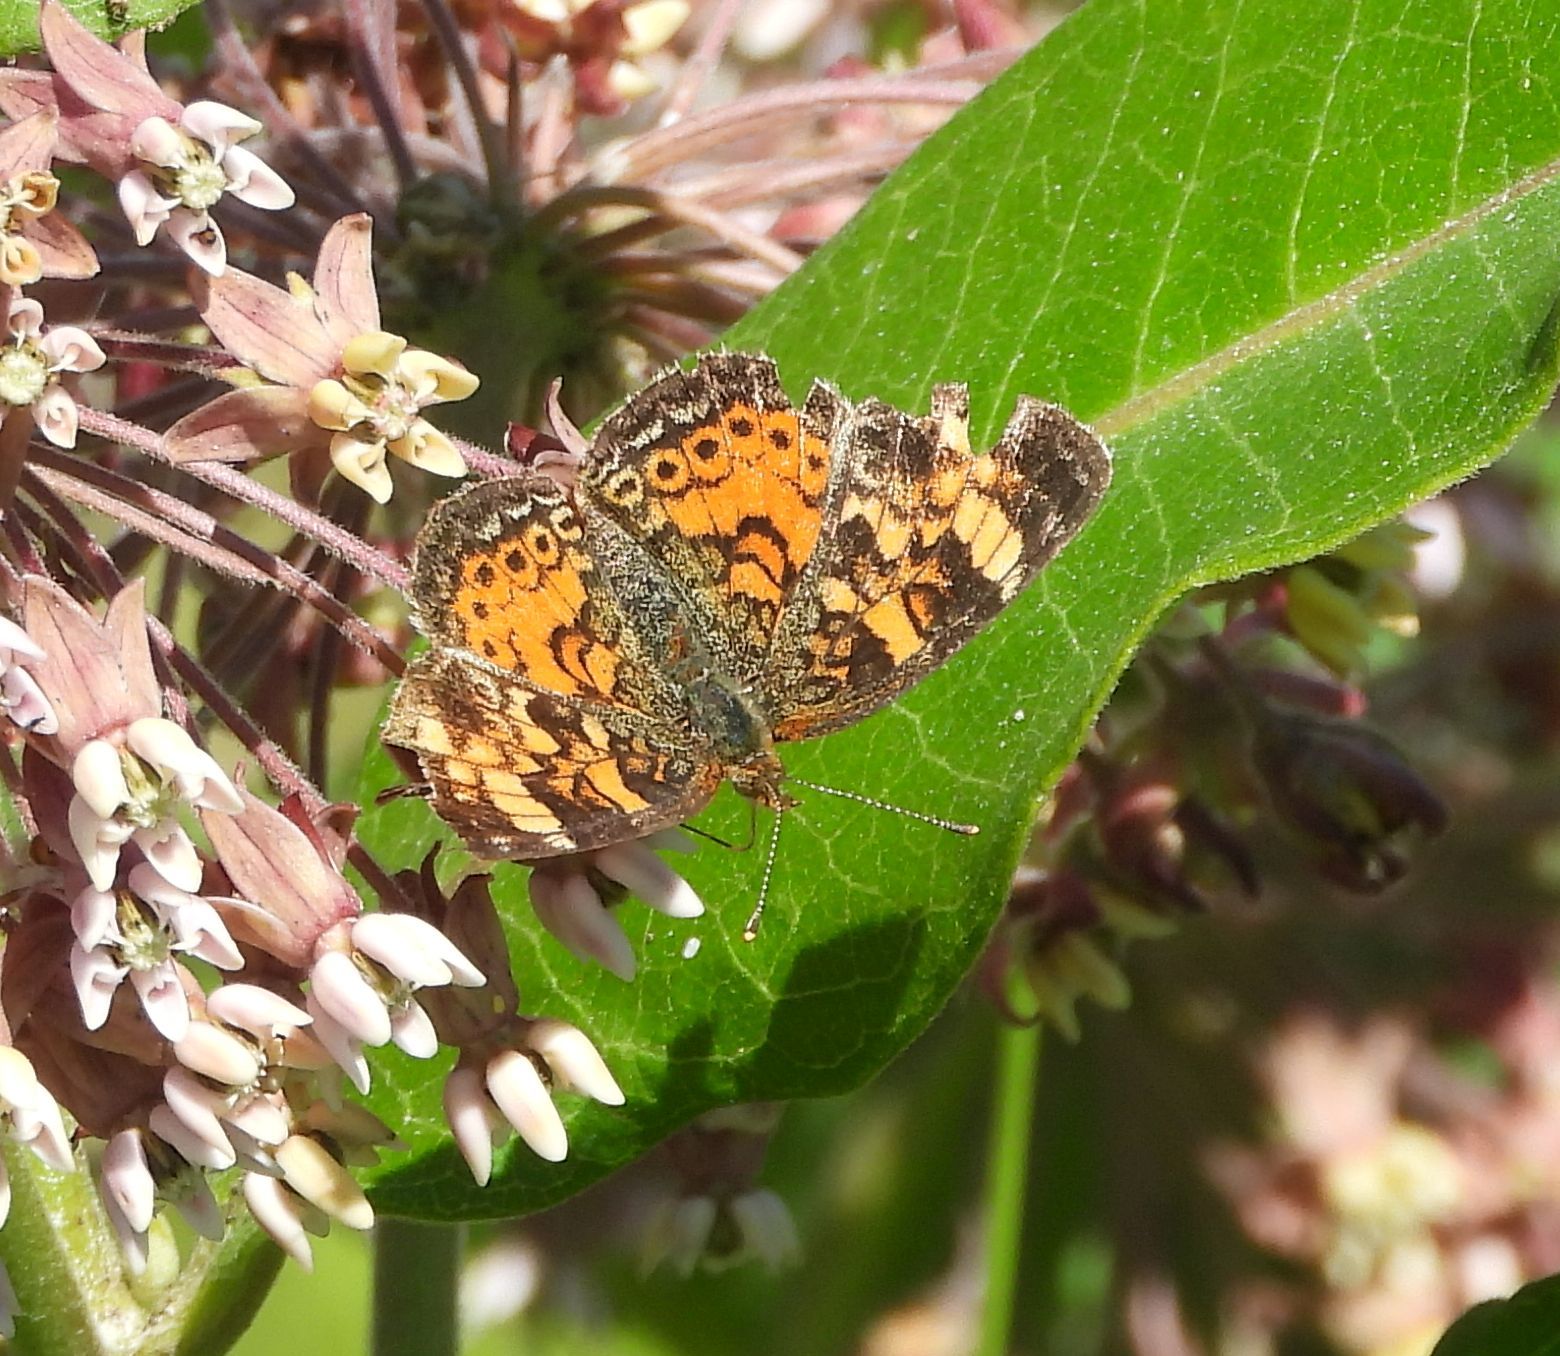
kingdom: Animalia
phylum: Arthropoda
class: Insecta
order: Lepidoptera
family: Nymphalidae
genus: Phyciodes
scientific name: Phyciodes tharos
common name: Pearl crescent
